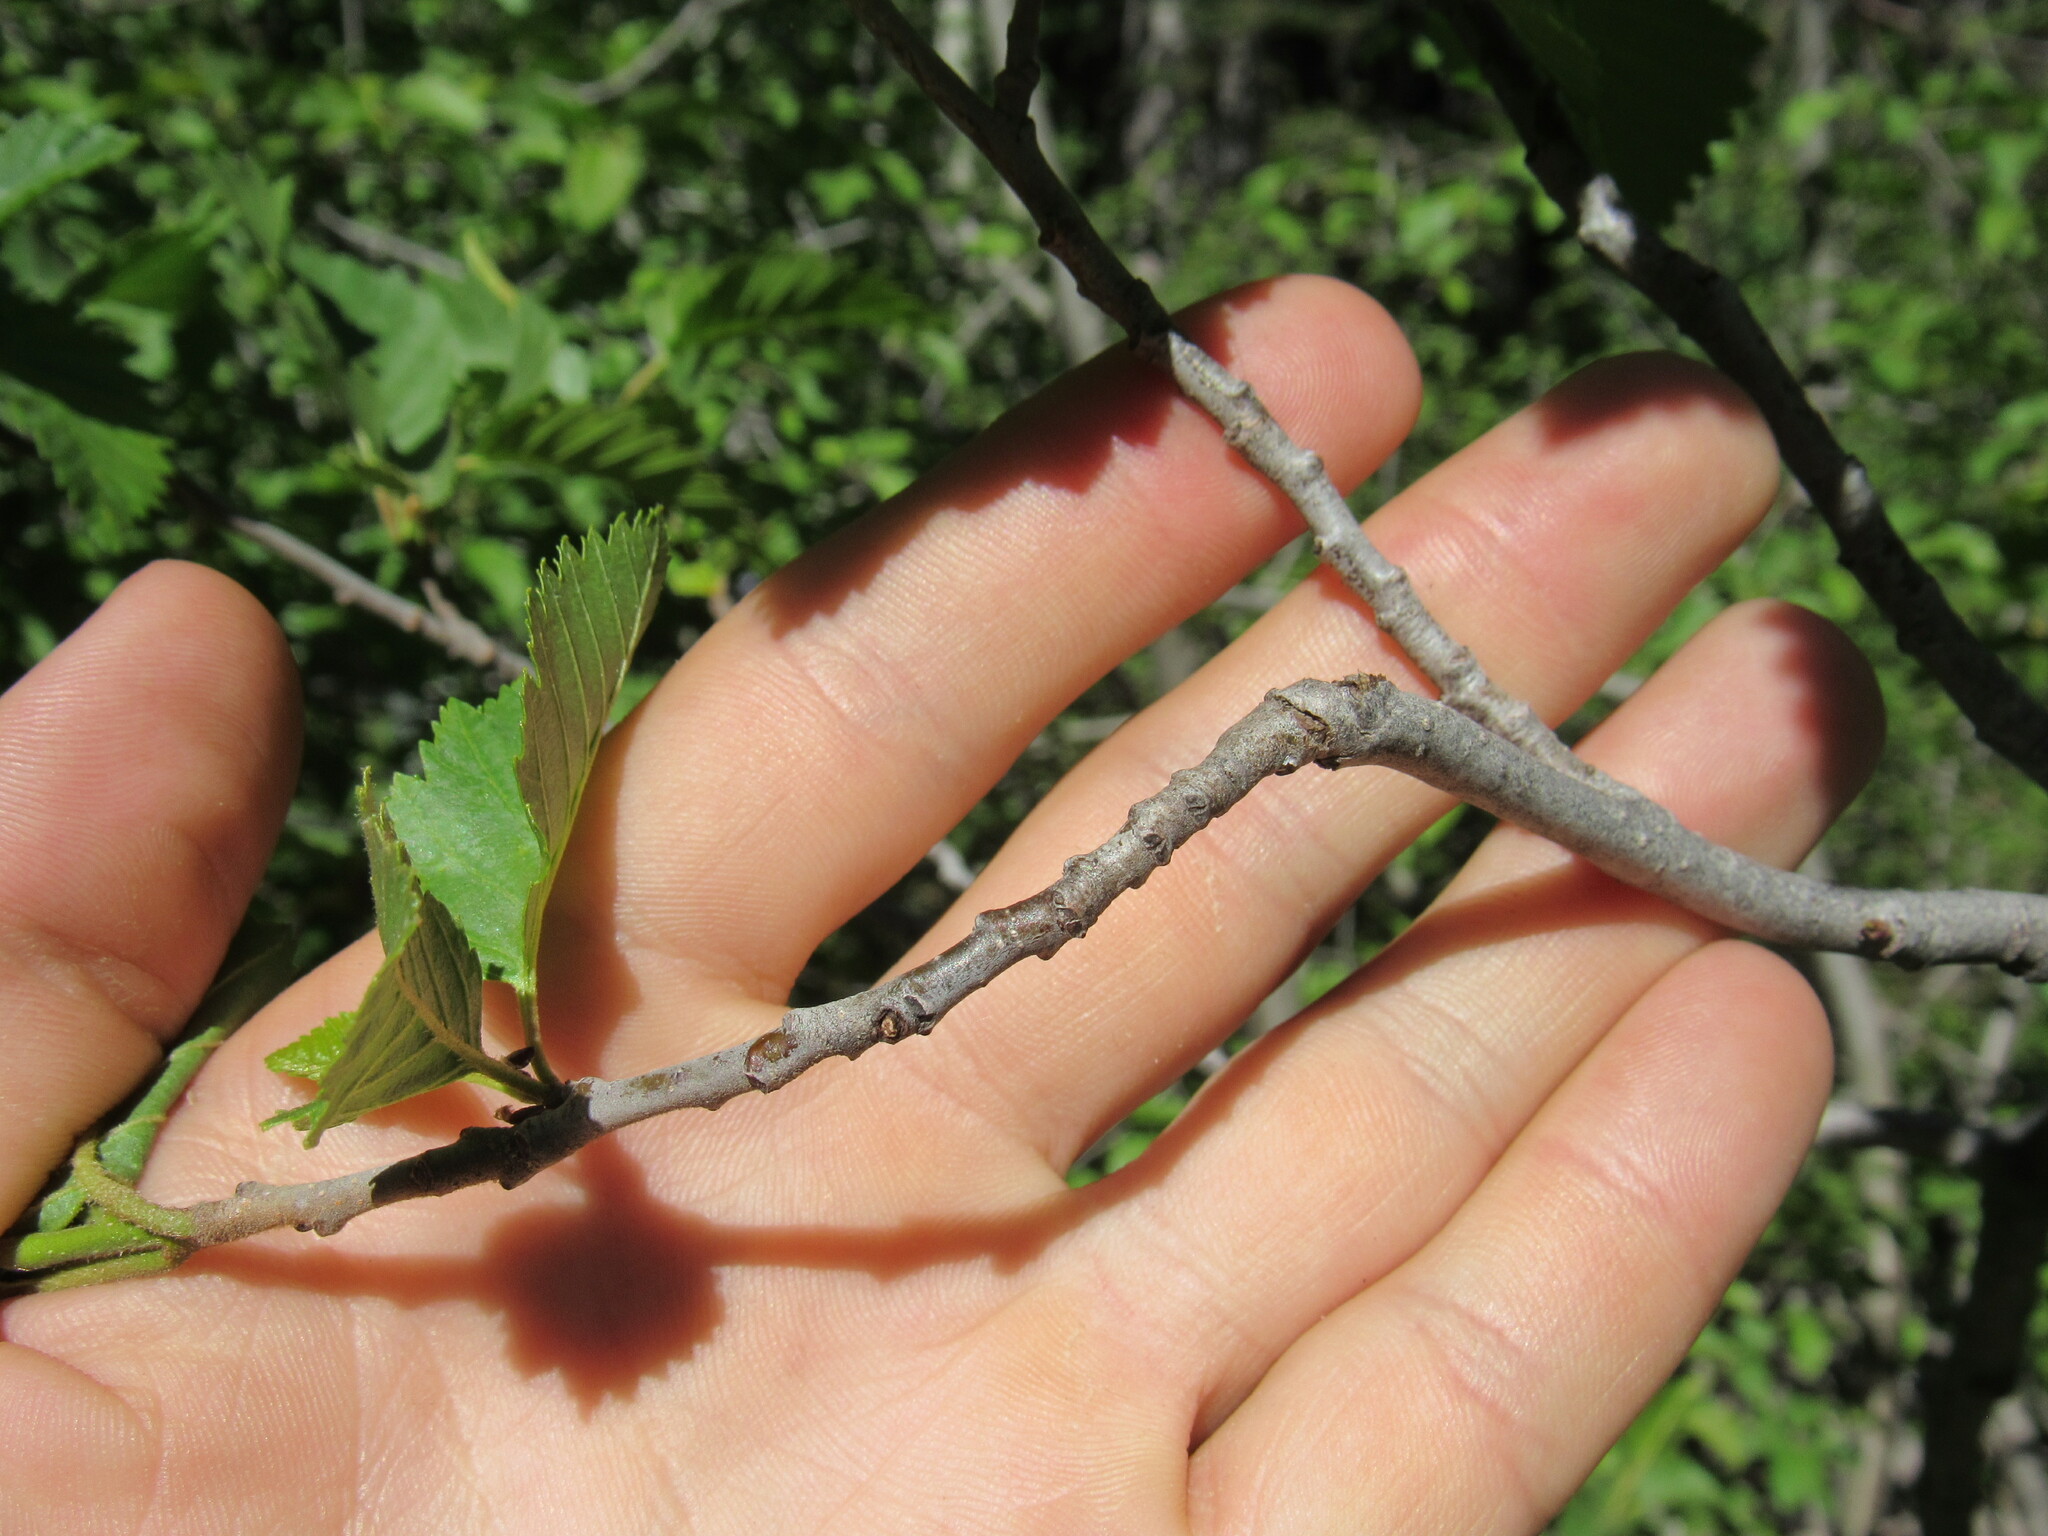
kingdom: Plantae
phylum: Tracheophyta
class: Magnoliopsida
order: Fagales
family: Betulaceae
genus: Alnus
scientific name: Alnus incana
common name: Grey alder
